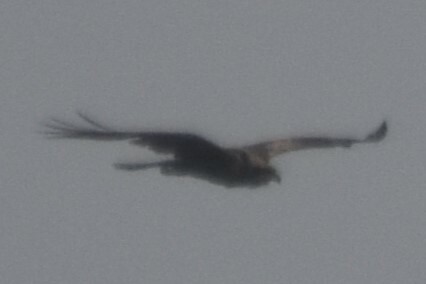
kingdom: Animalia
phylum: Chordata
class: Aves
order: Accipitriformes
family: Accipitridae
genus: Circus
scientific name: Circus aeruginosus
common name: Western marsh harrier
